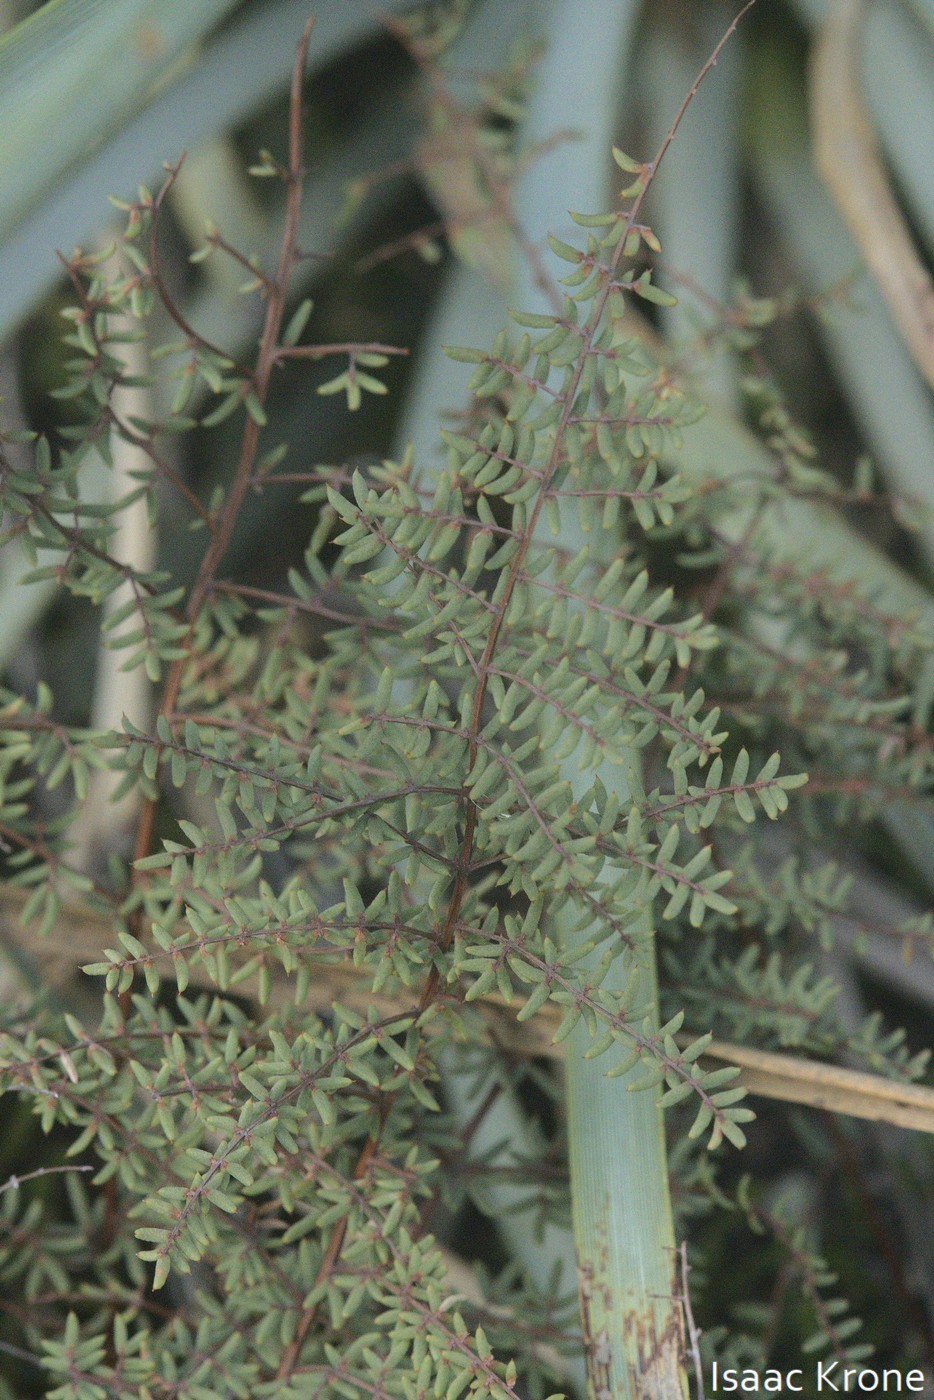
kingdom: Plantae
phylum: Tracheophyta
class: Polypodiopsida
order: Polypodiales
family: Pteridaceae
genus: Pellaea
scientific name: Pellaea mucronata
